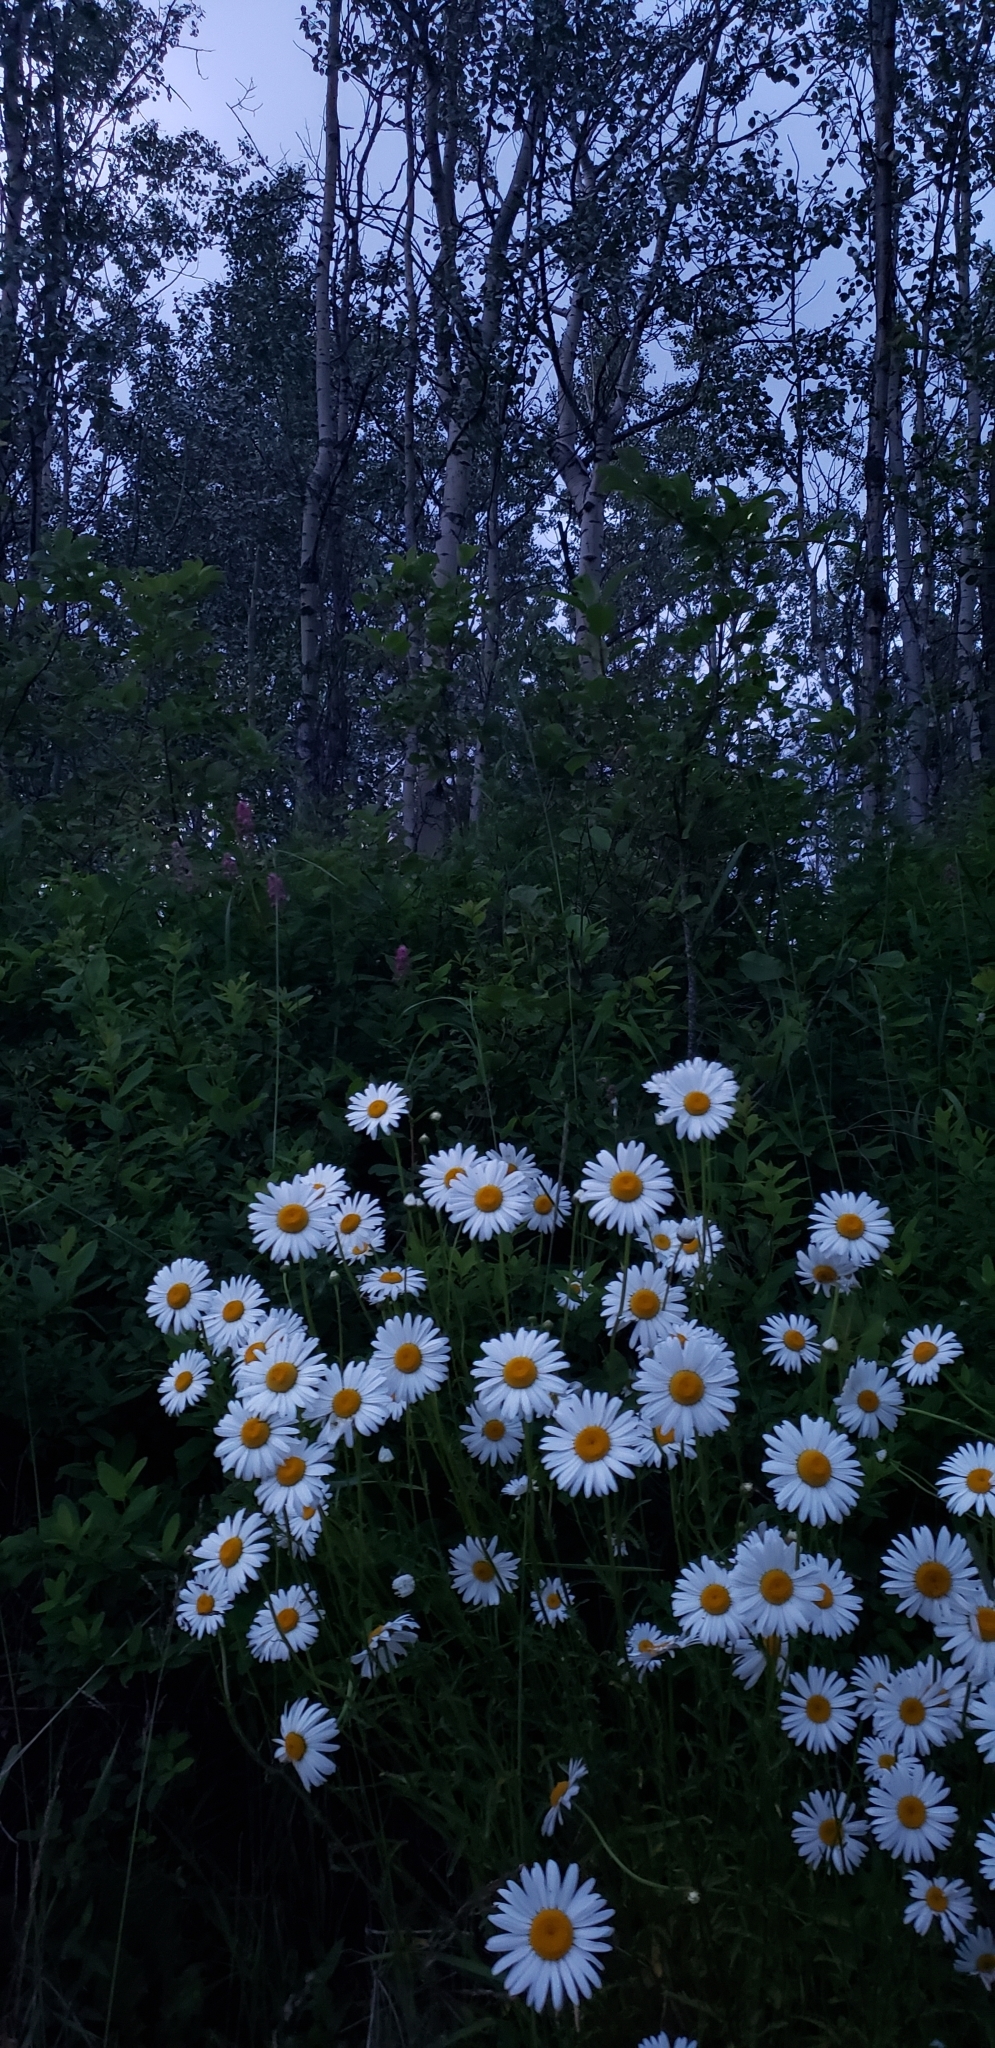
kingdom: Plantae
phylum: Tracheophyta
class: Magnoliopsida
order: Asterales
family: Asteraceae
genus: Leucanthemum
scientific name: Leucanthemum vulgare
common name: Oxeye daisy
